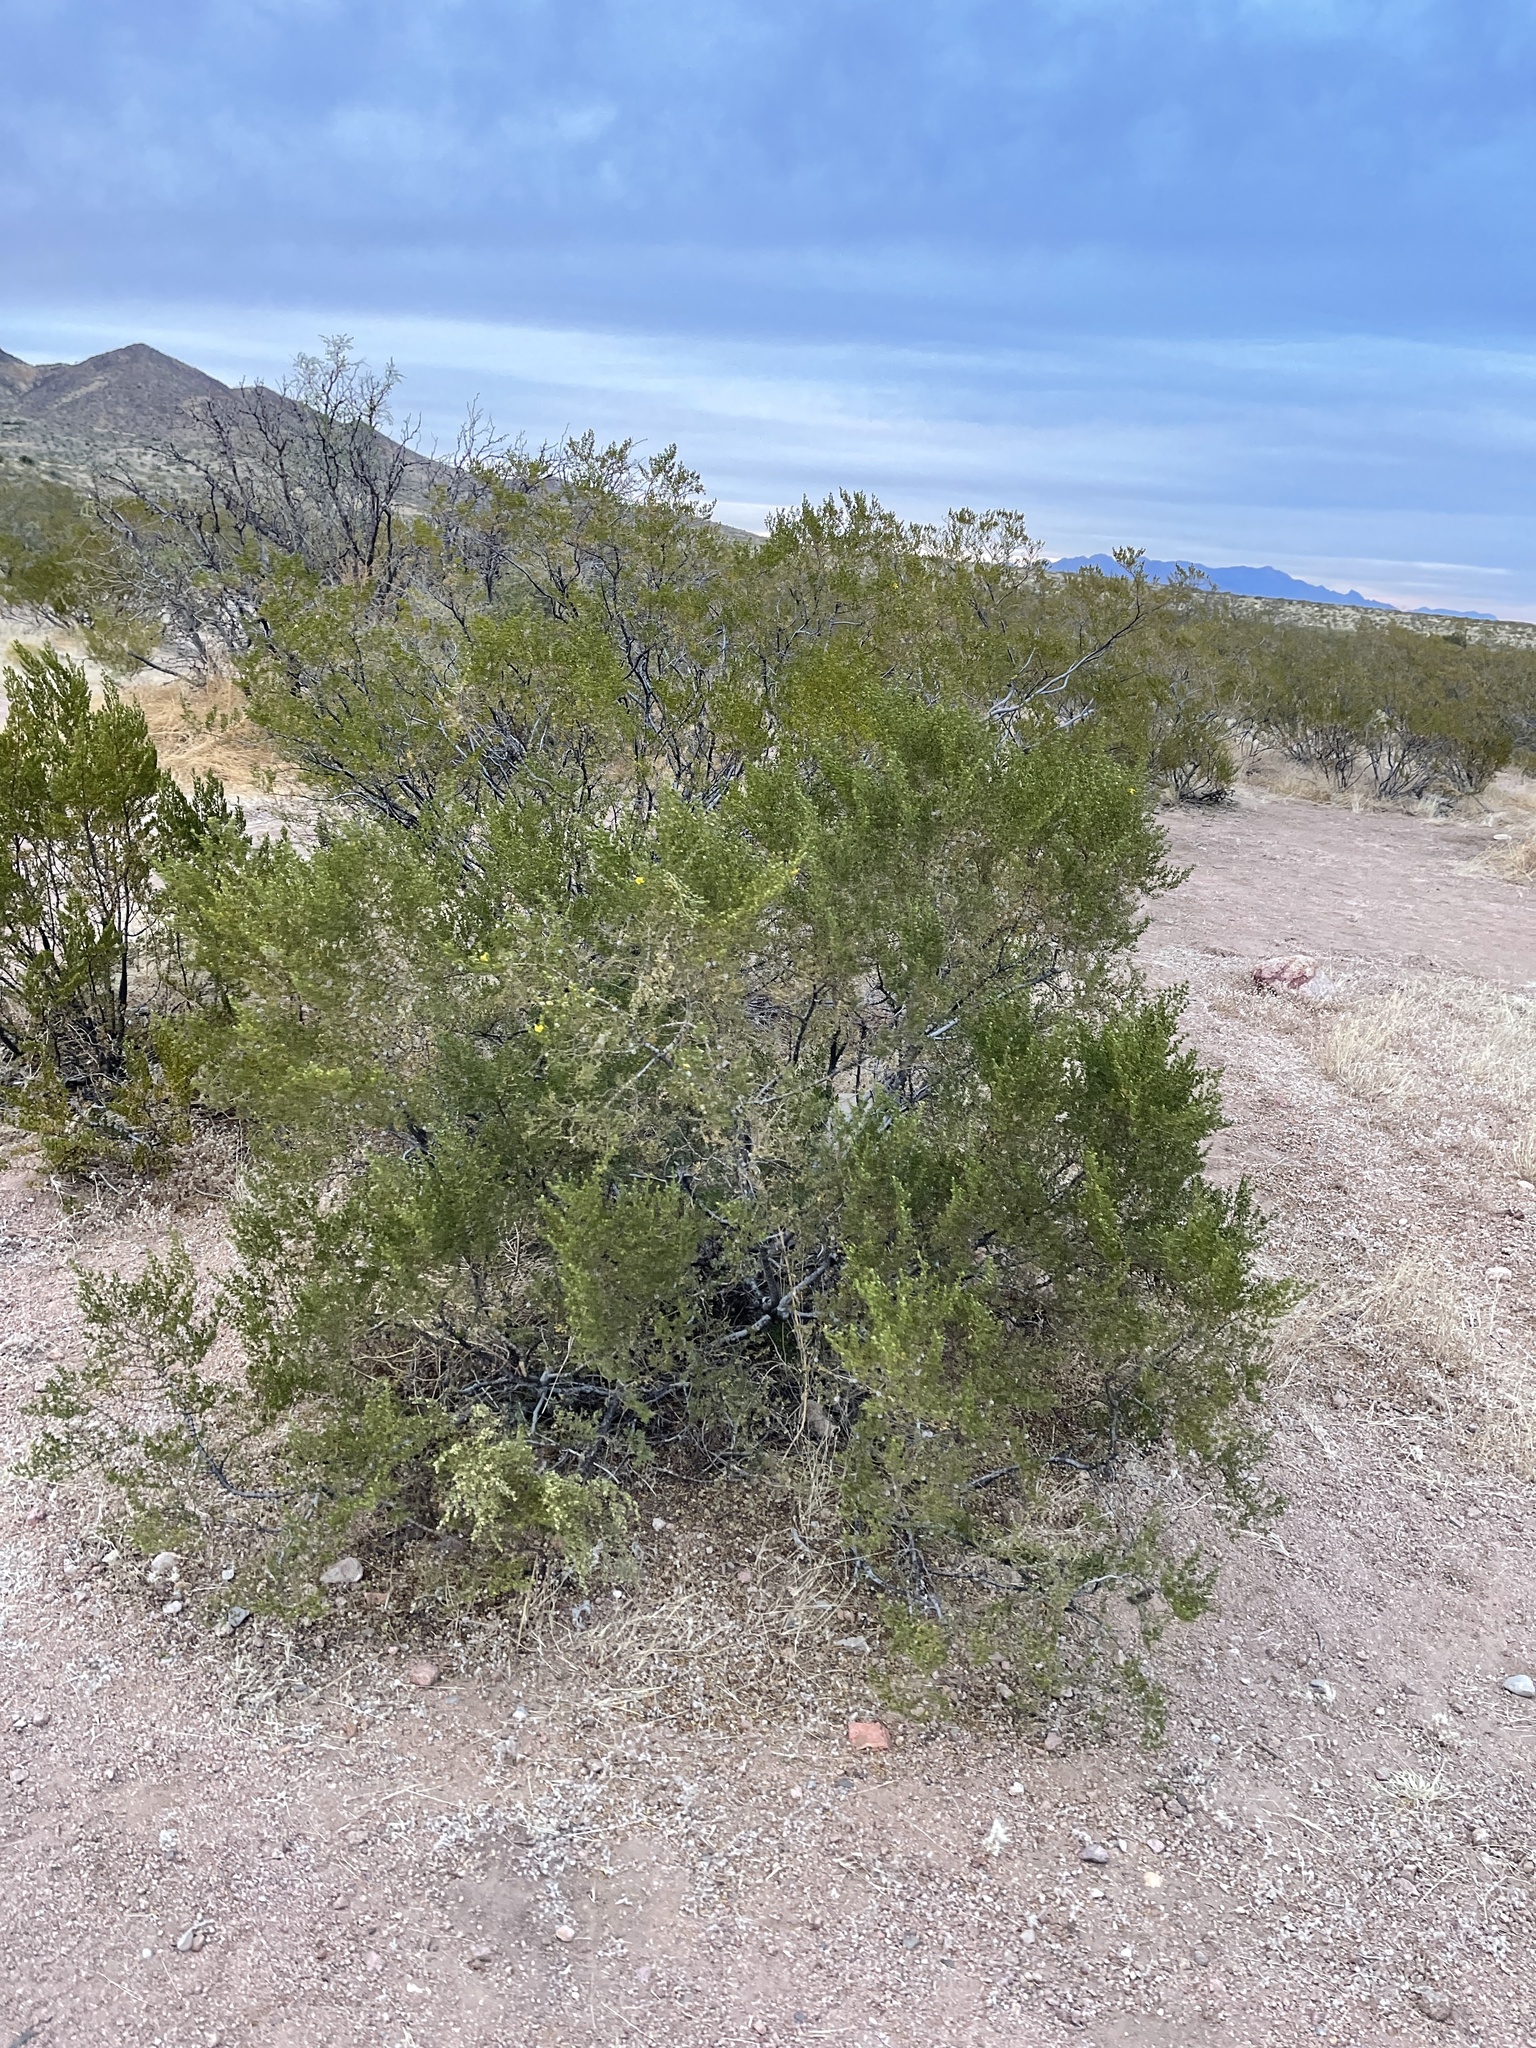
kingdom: Plantae
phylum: Tracheophyta
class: Magnoliopsida
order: Zygophyllales
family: Zygophyllaceae
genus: Larrea
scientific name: Larrea tridentata
